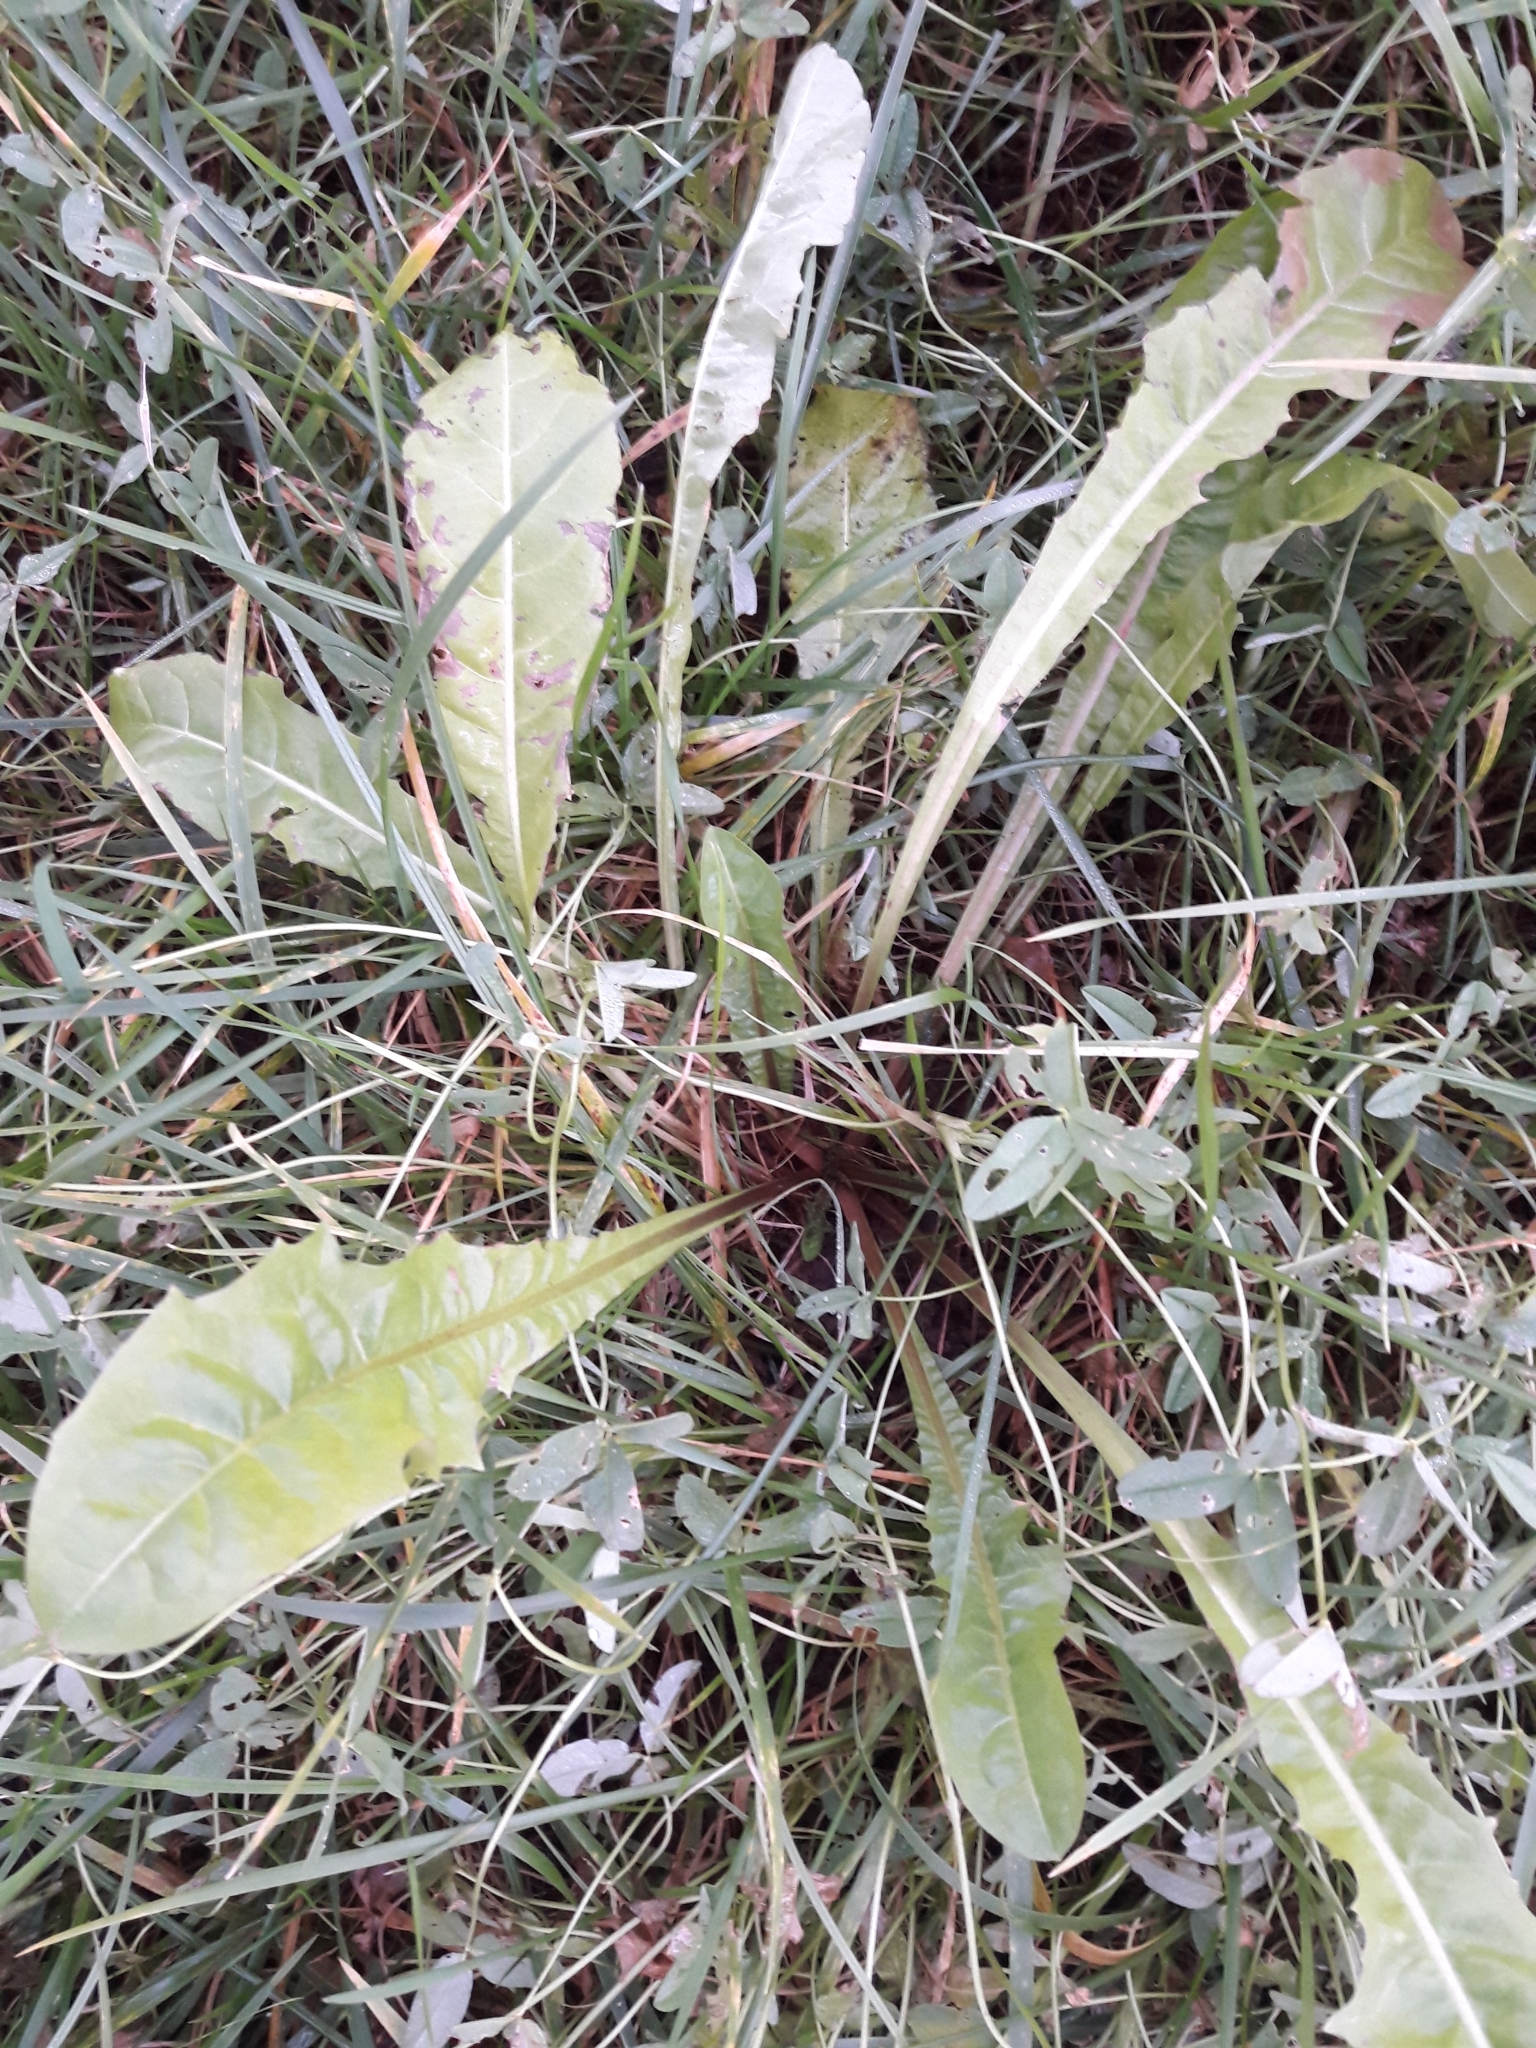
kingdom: Plantae
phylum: Tracheophyta
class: Magnoliopsida
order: Asterales
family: Asteraceae
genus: Taraxacum
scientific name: Taraxacum officinale
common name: Common dandelion
